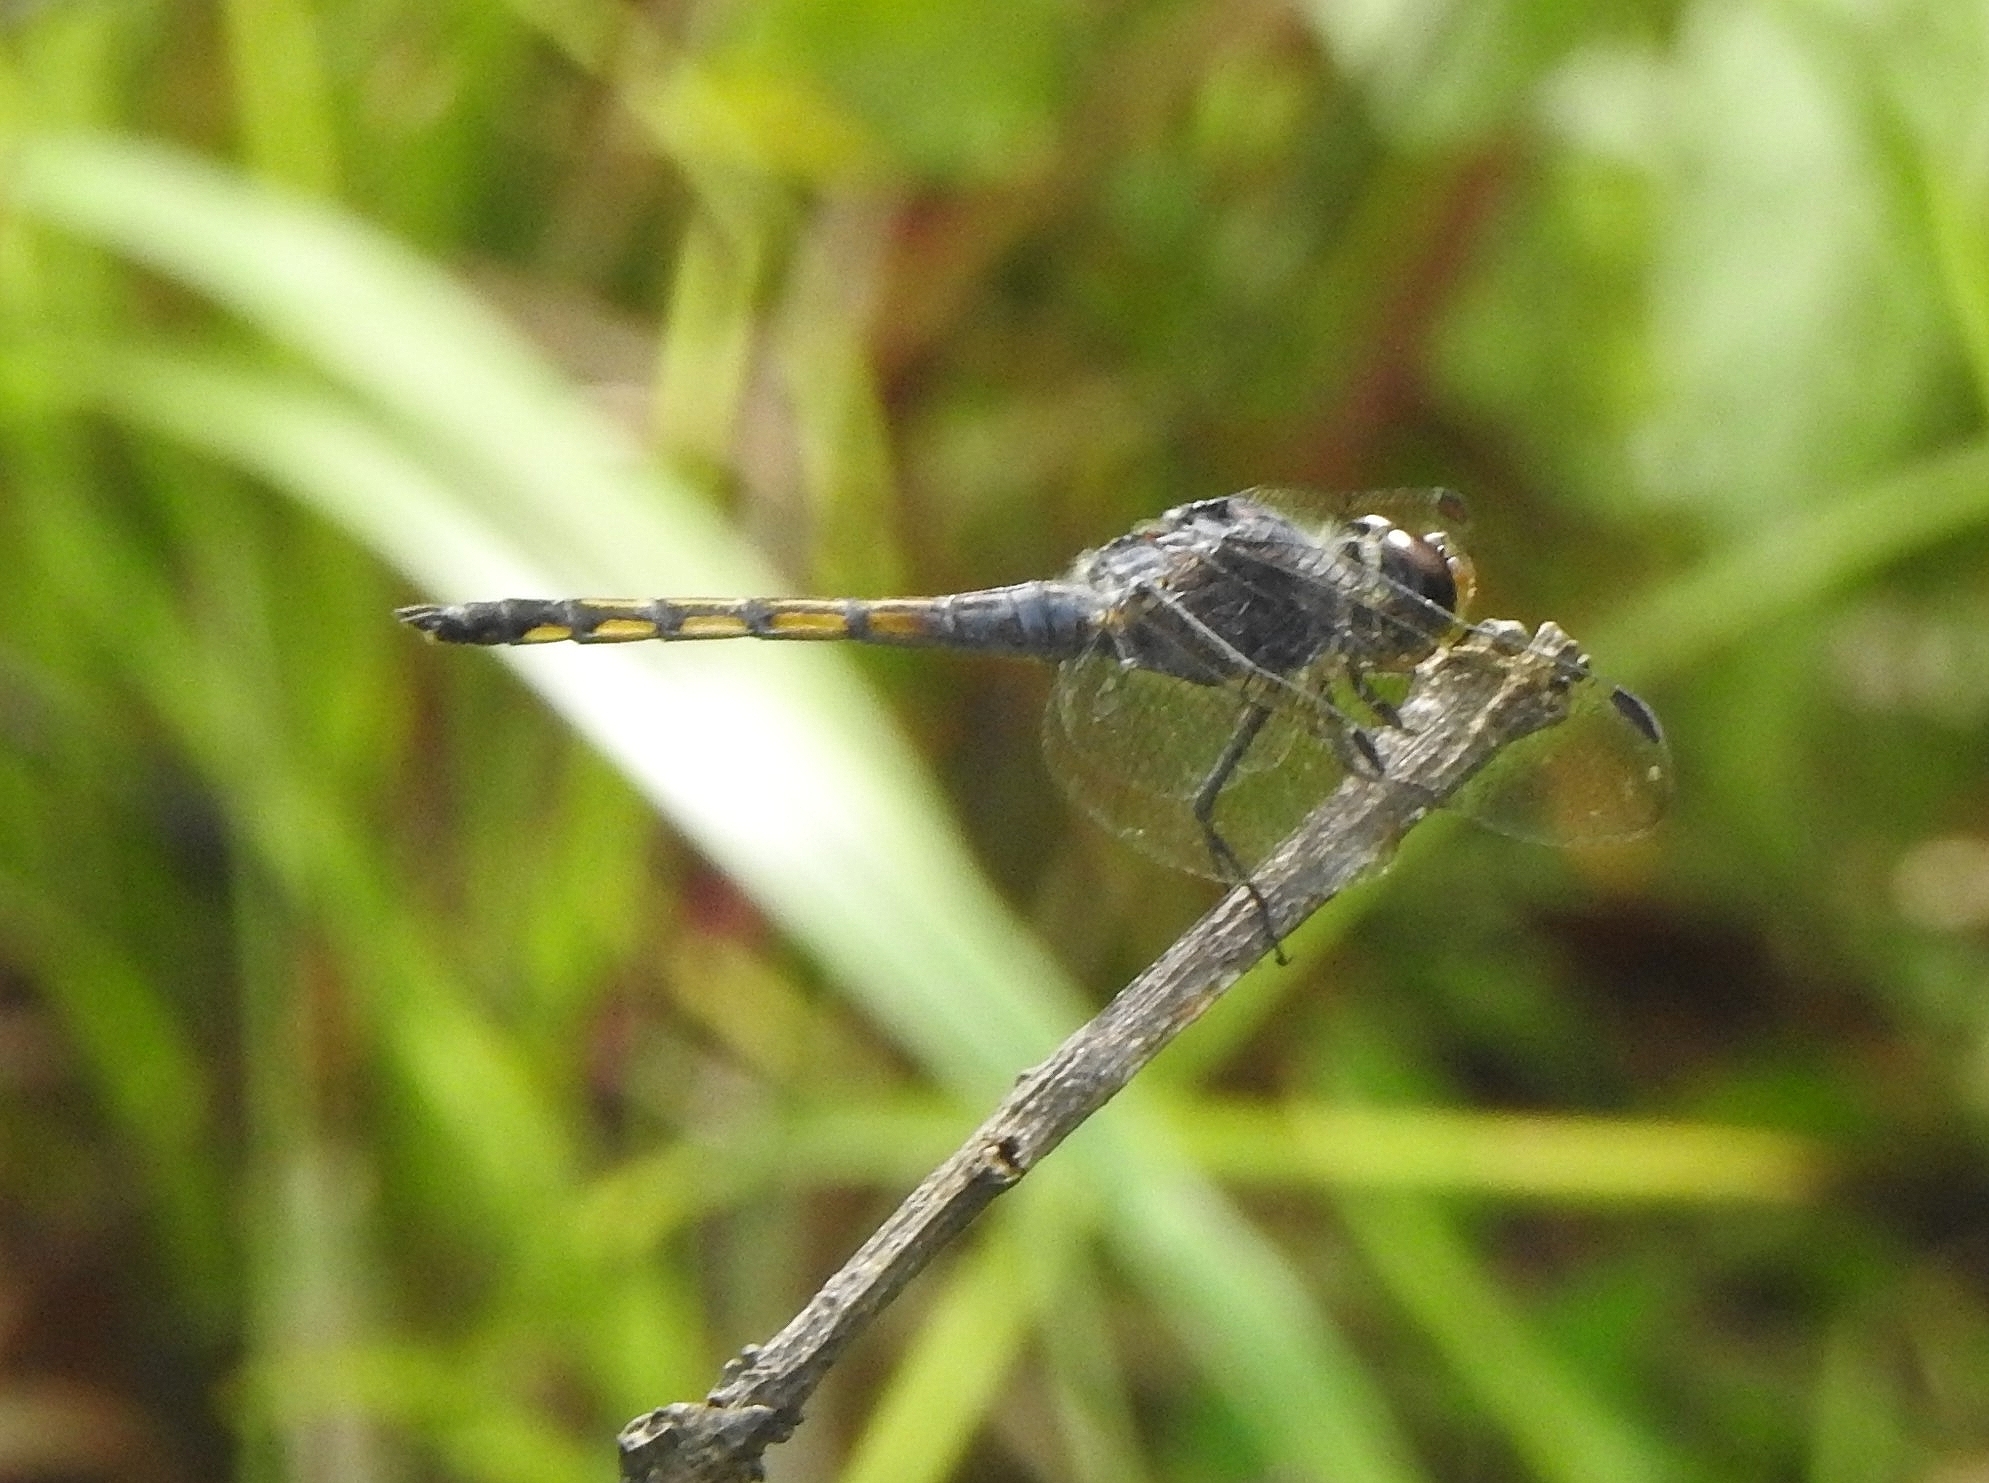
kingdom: Animalia
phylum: Arthropoda
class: Insecta
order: Odonata
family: Libellulidae
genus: Potamarcha
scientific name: Potamarcha congener
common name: Blue chaser
